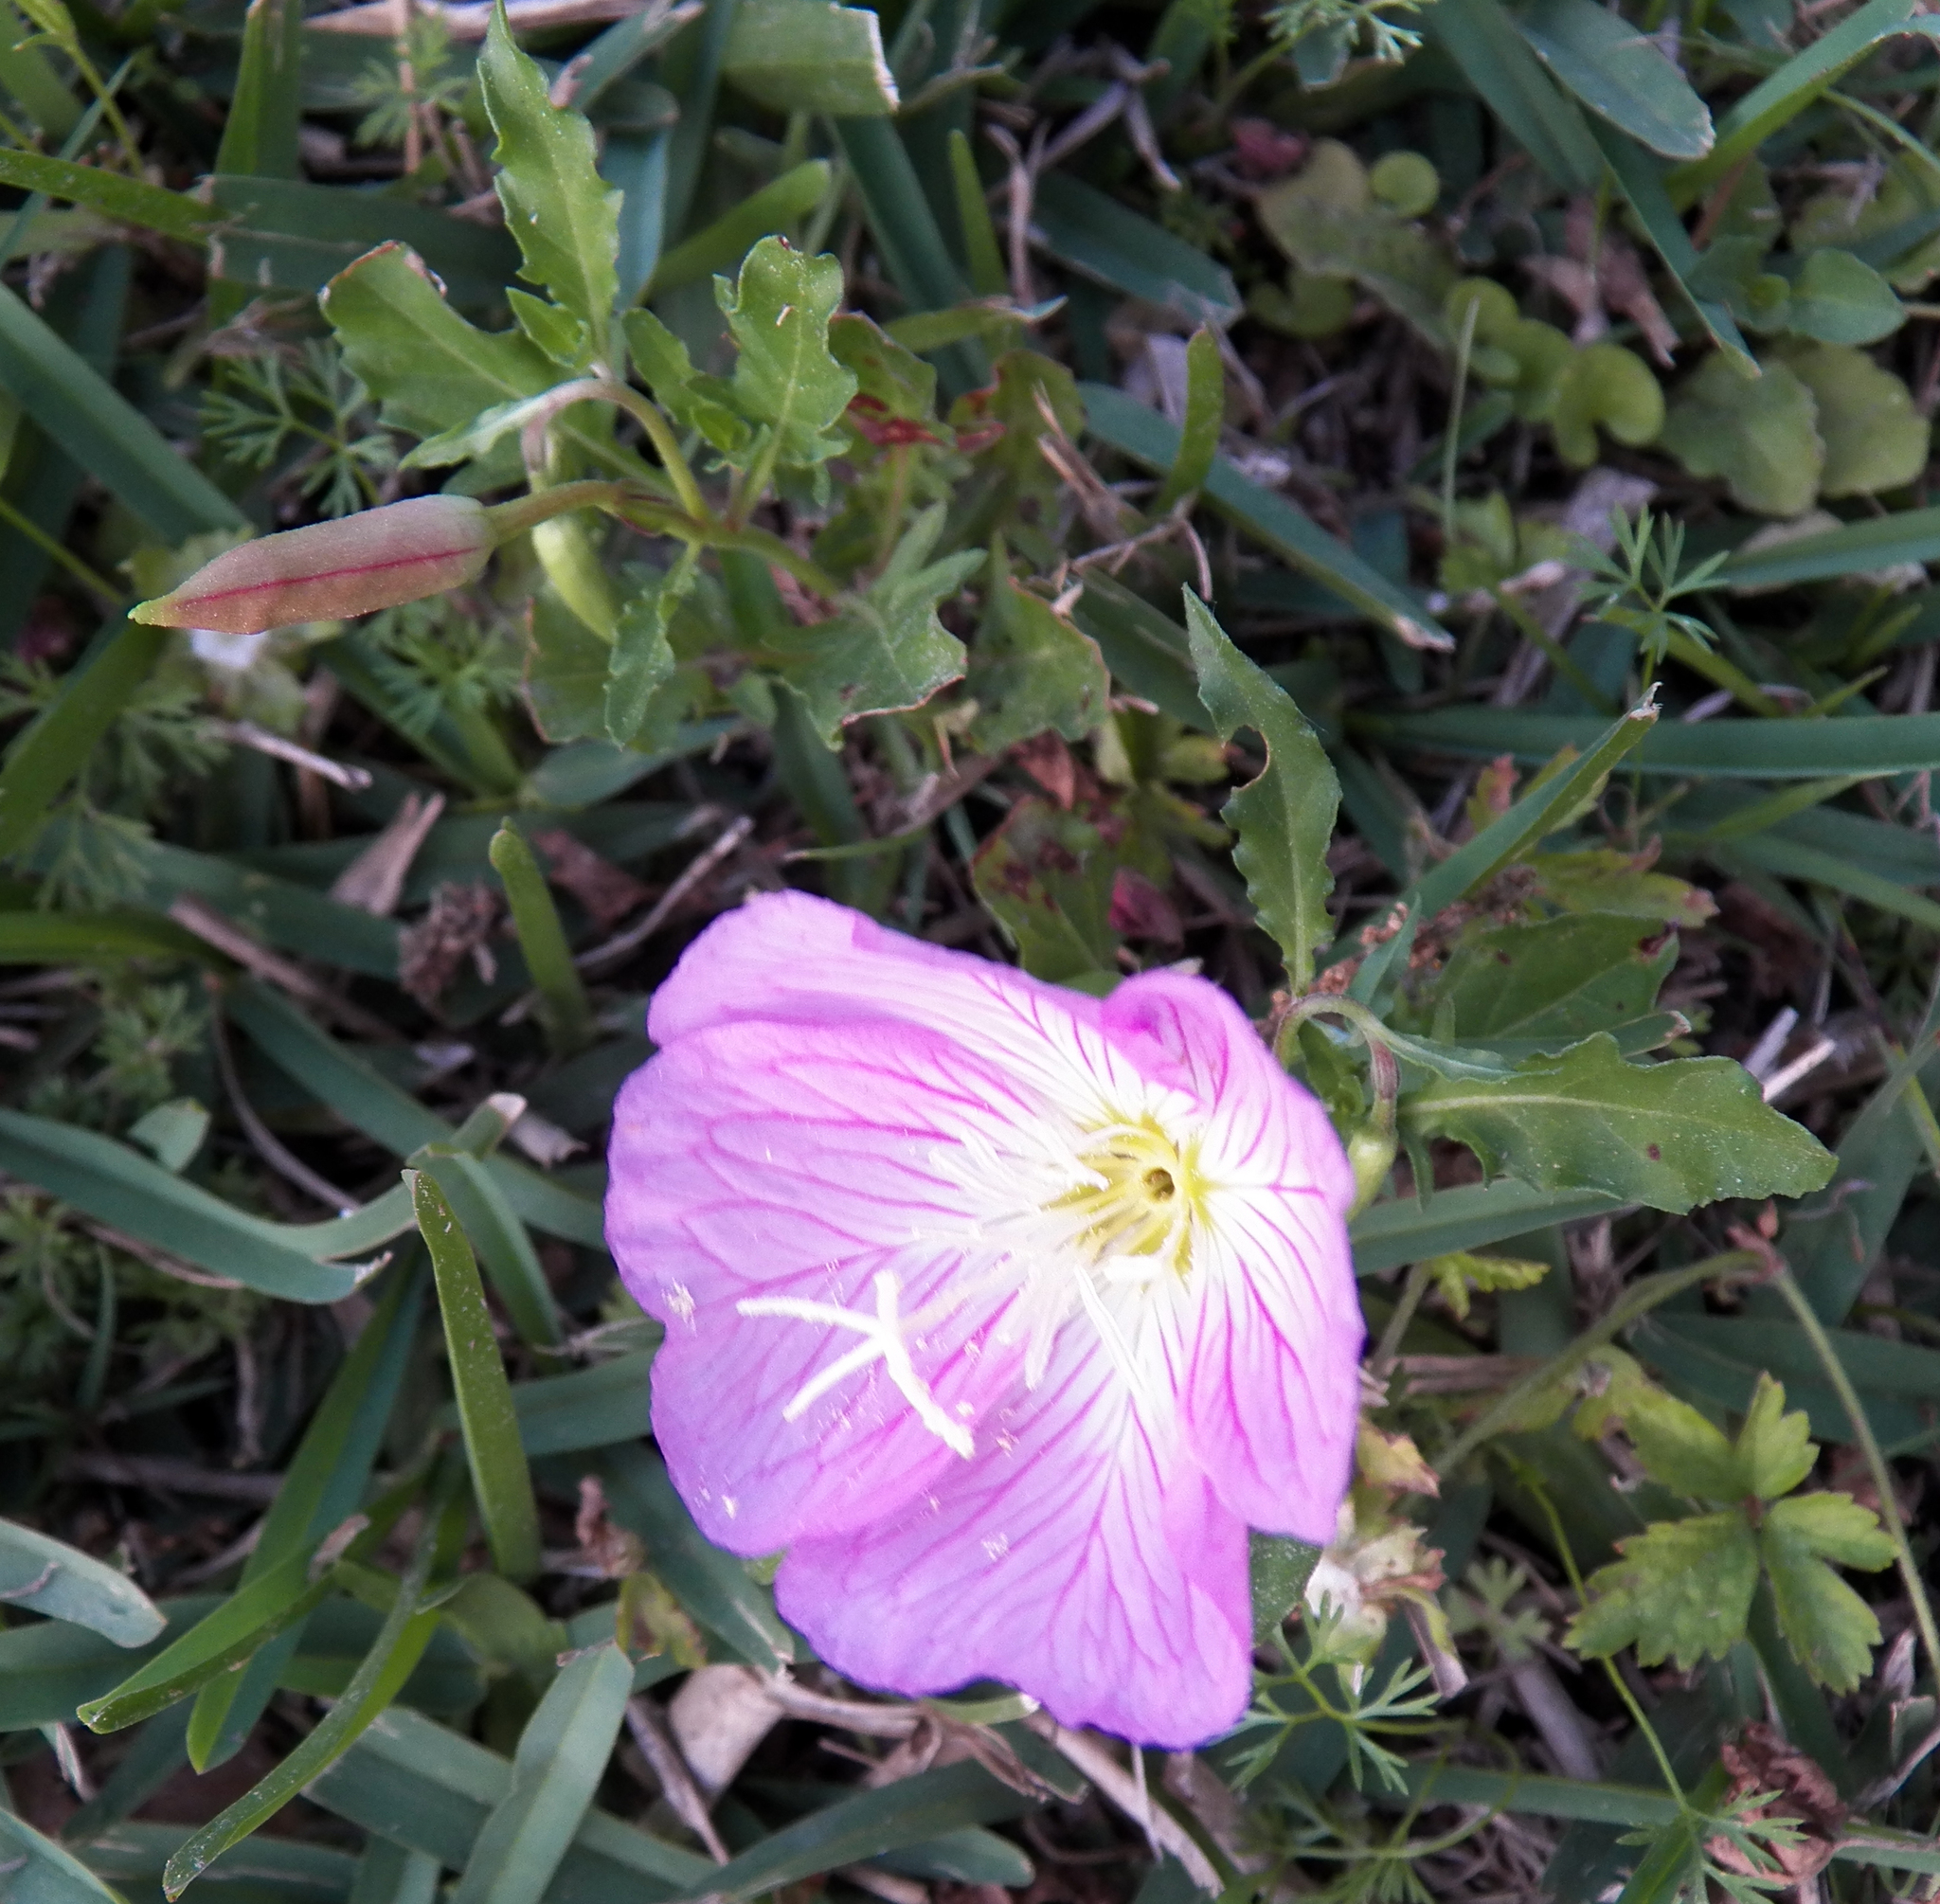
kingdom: Plantae
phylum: Tracheophyta
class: Magnoliopsida
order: Myrtales
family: Onagraceae
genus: Oenothera
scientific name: Oenothera speciosa
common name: White evening-primrose
